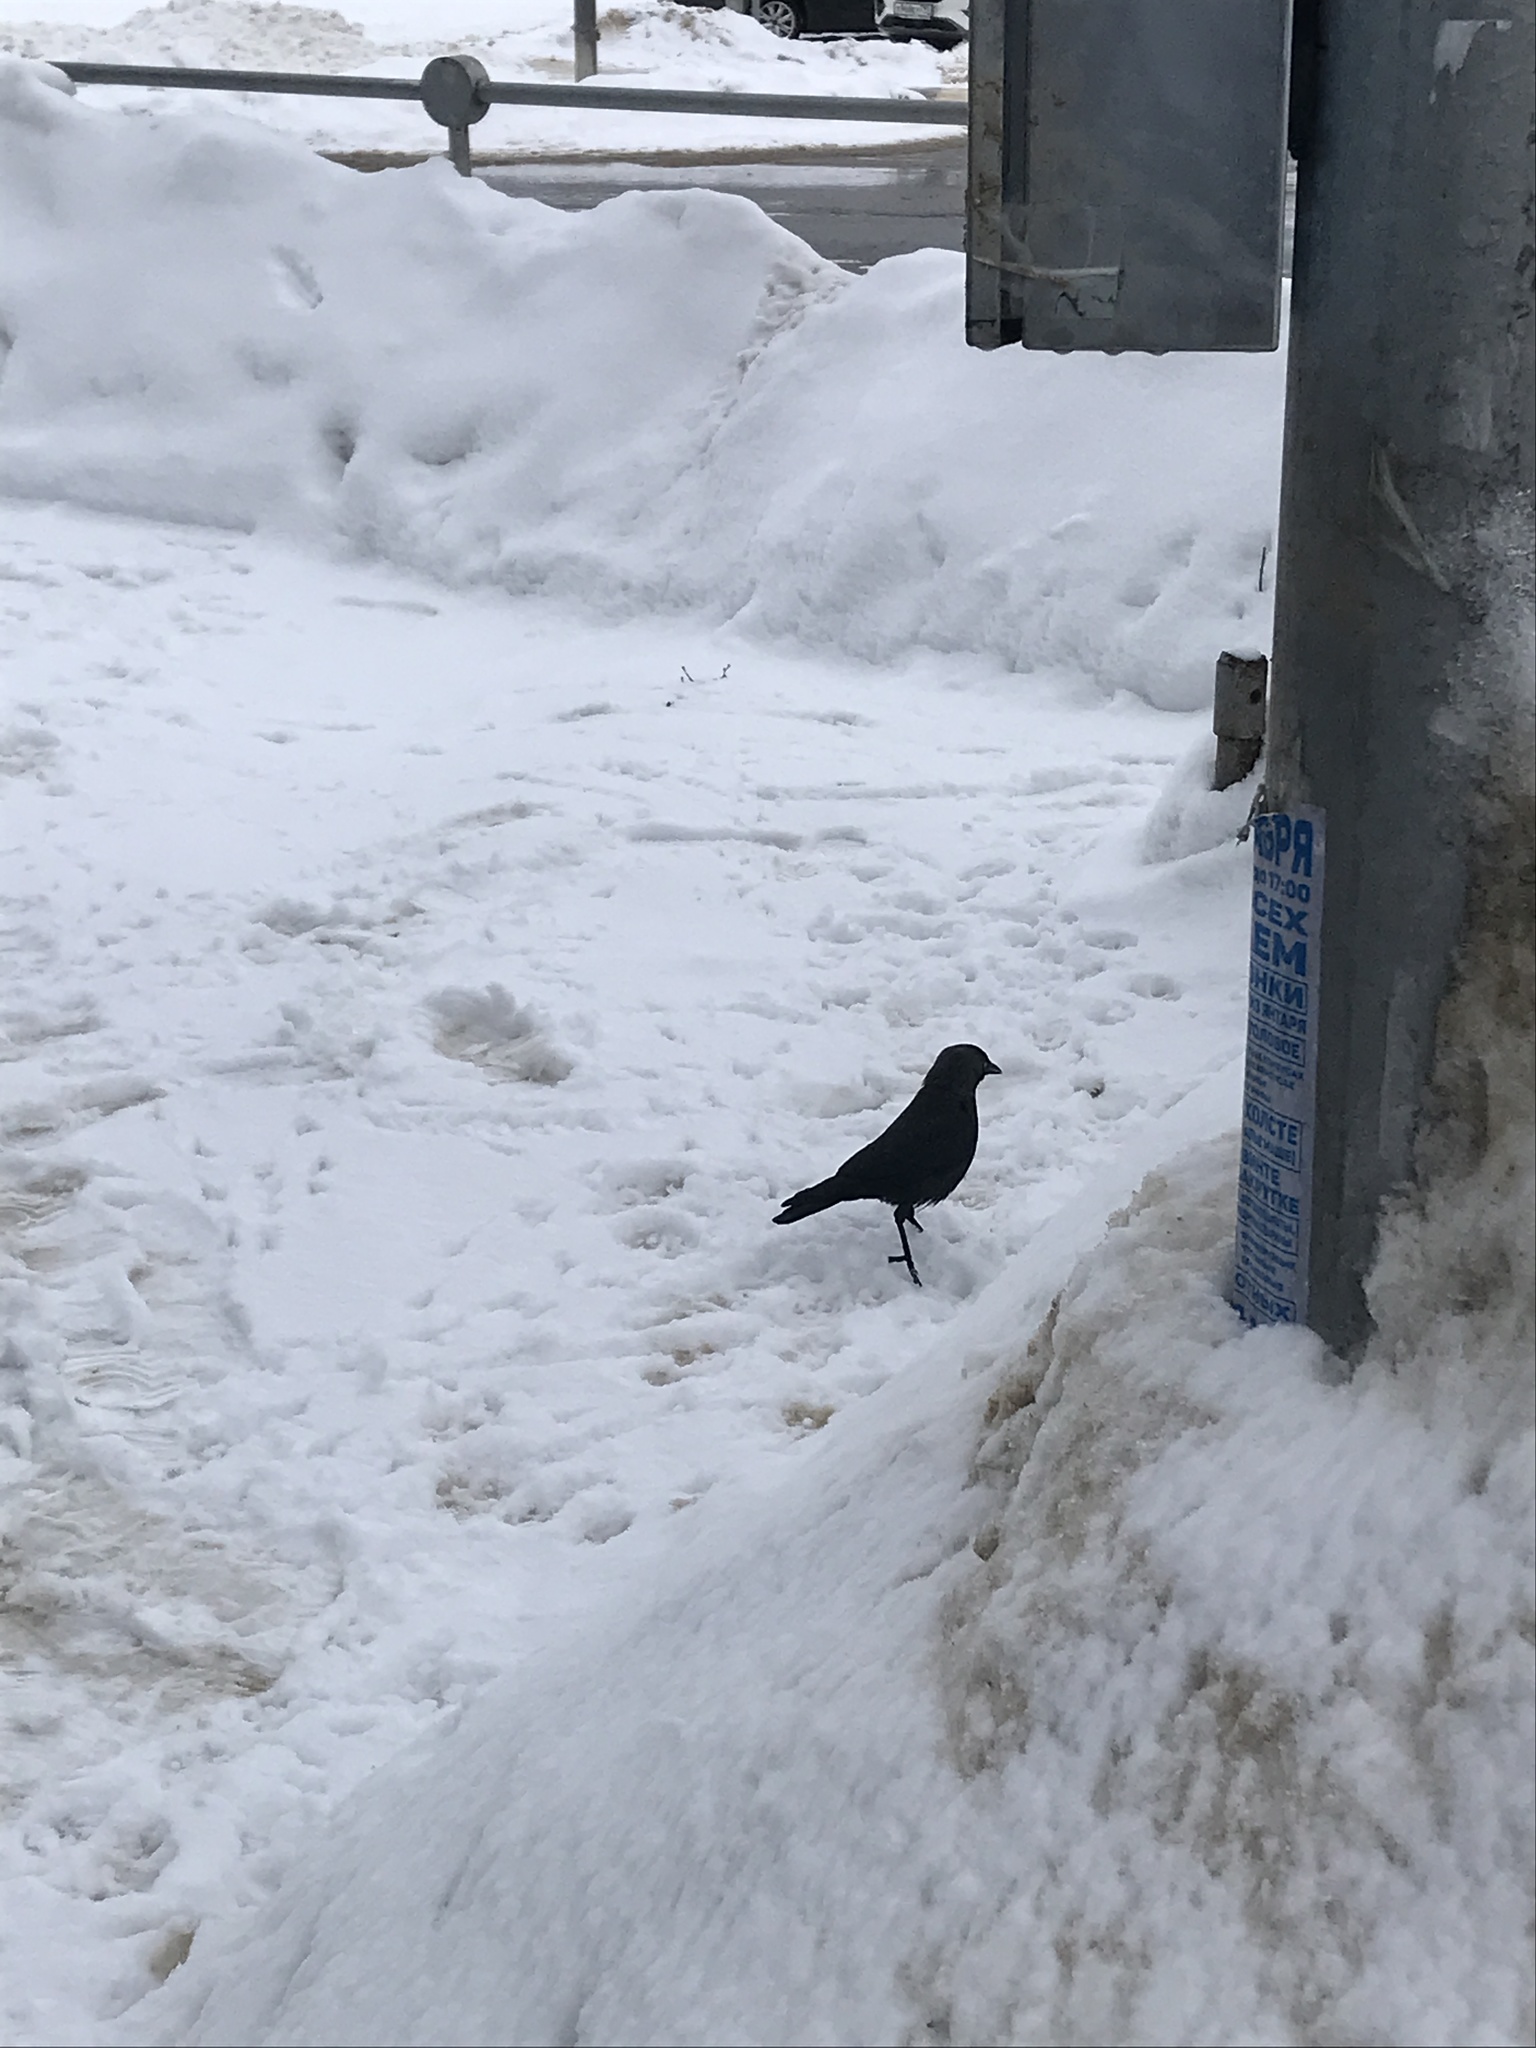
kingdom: Animalia
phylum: Chordata
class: Aves
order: Passeriformes
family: Corvidae
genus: Coloeus
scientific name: Coloeus monedula
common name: Western jackdaw
